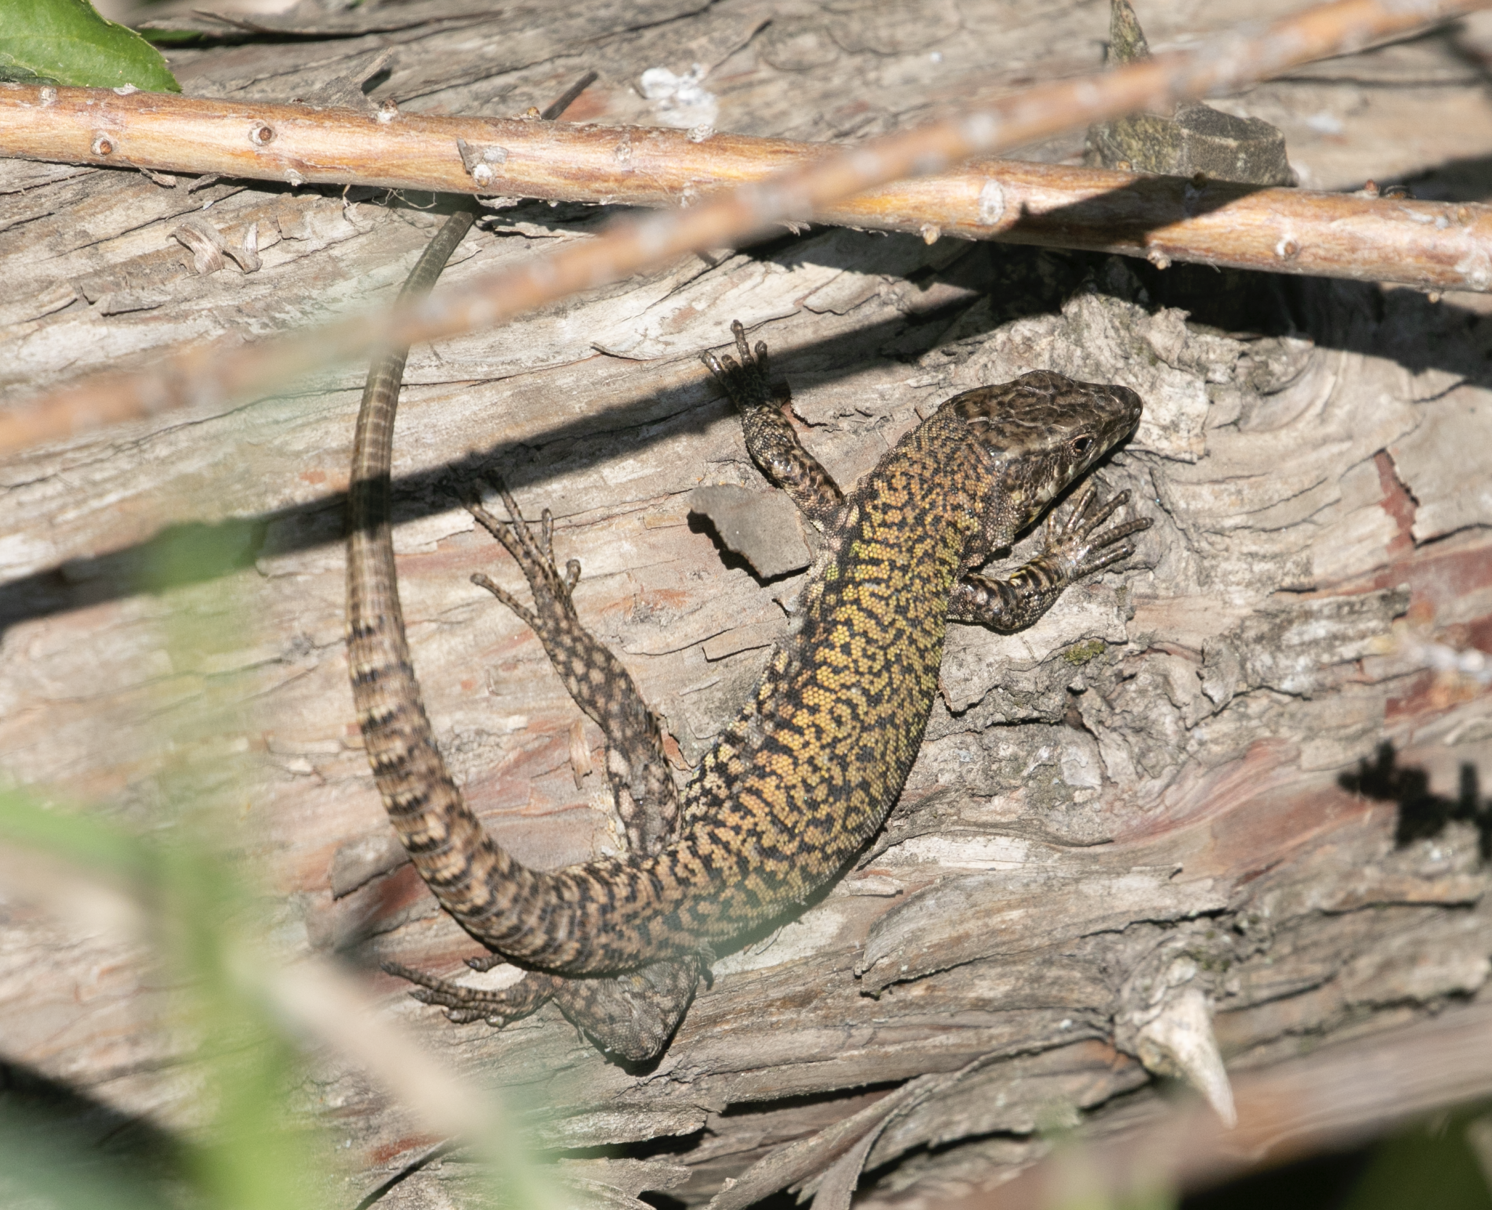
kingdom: Animalia
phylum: Chordata
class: Squamata
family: Lacertidae
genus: Podarcis
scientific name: Podarcis muralis
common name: Common wall lizard
